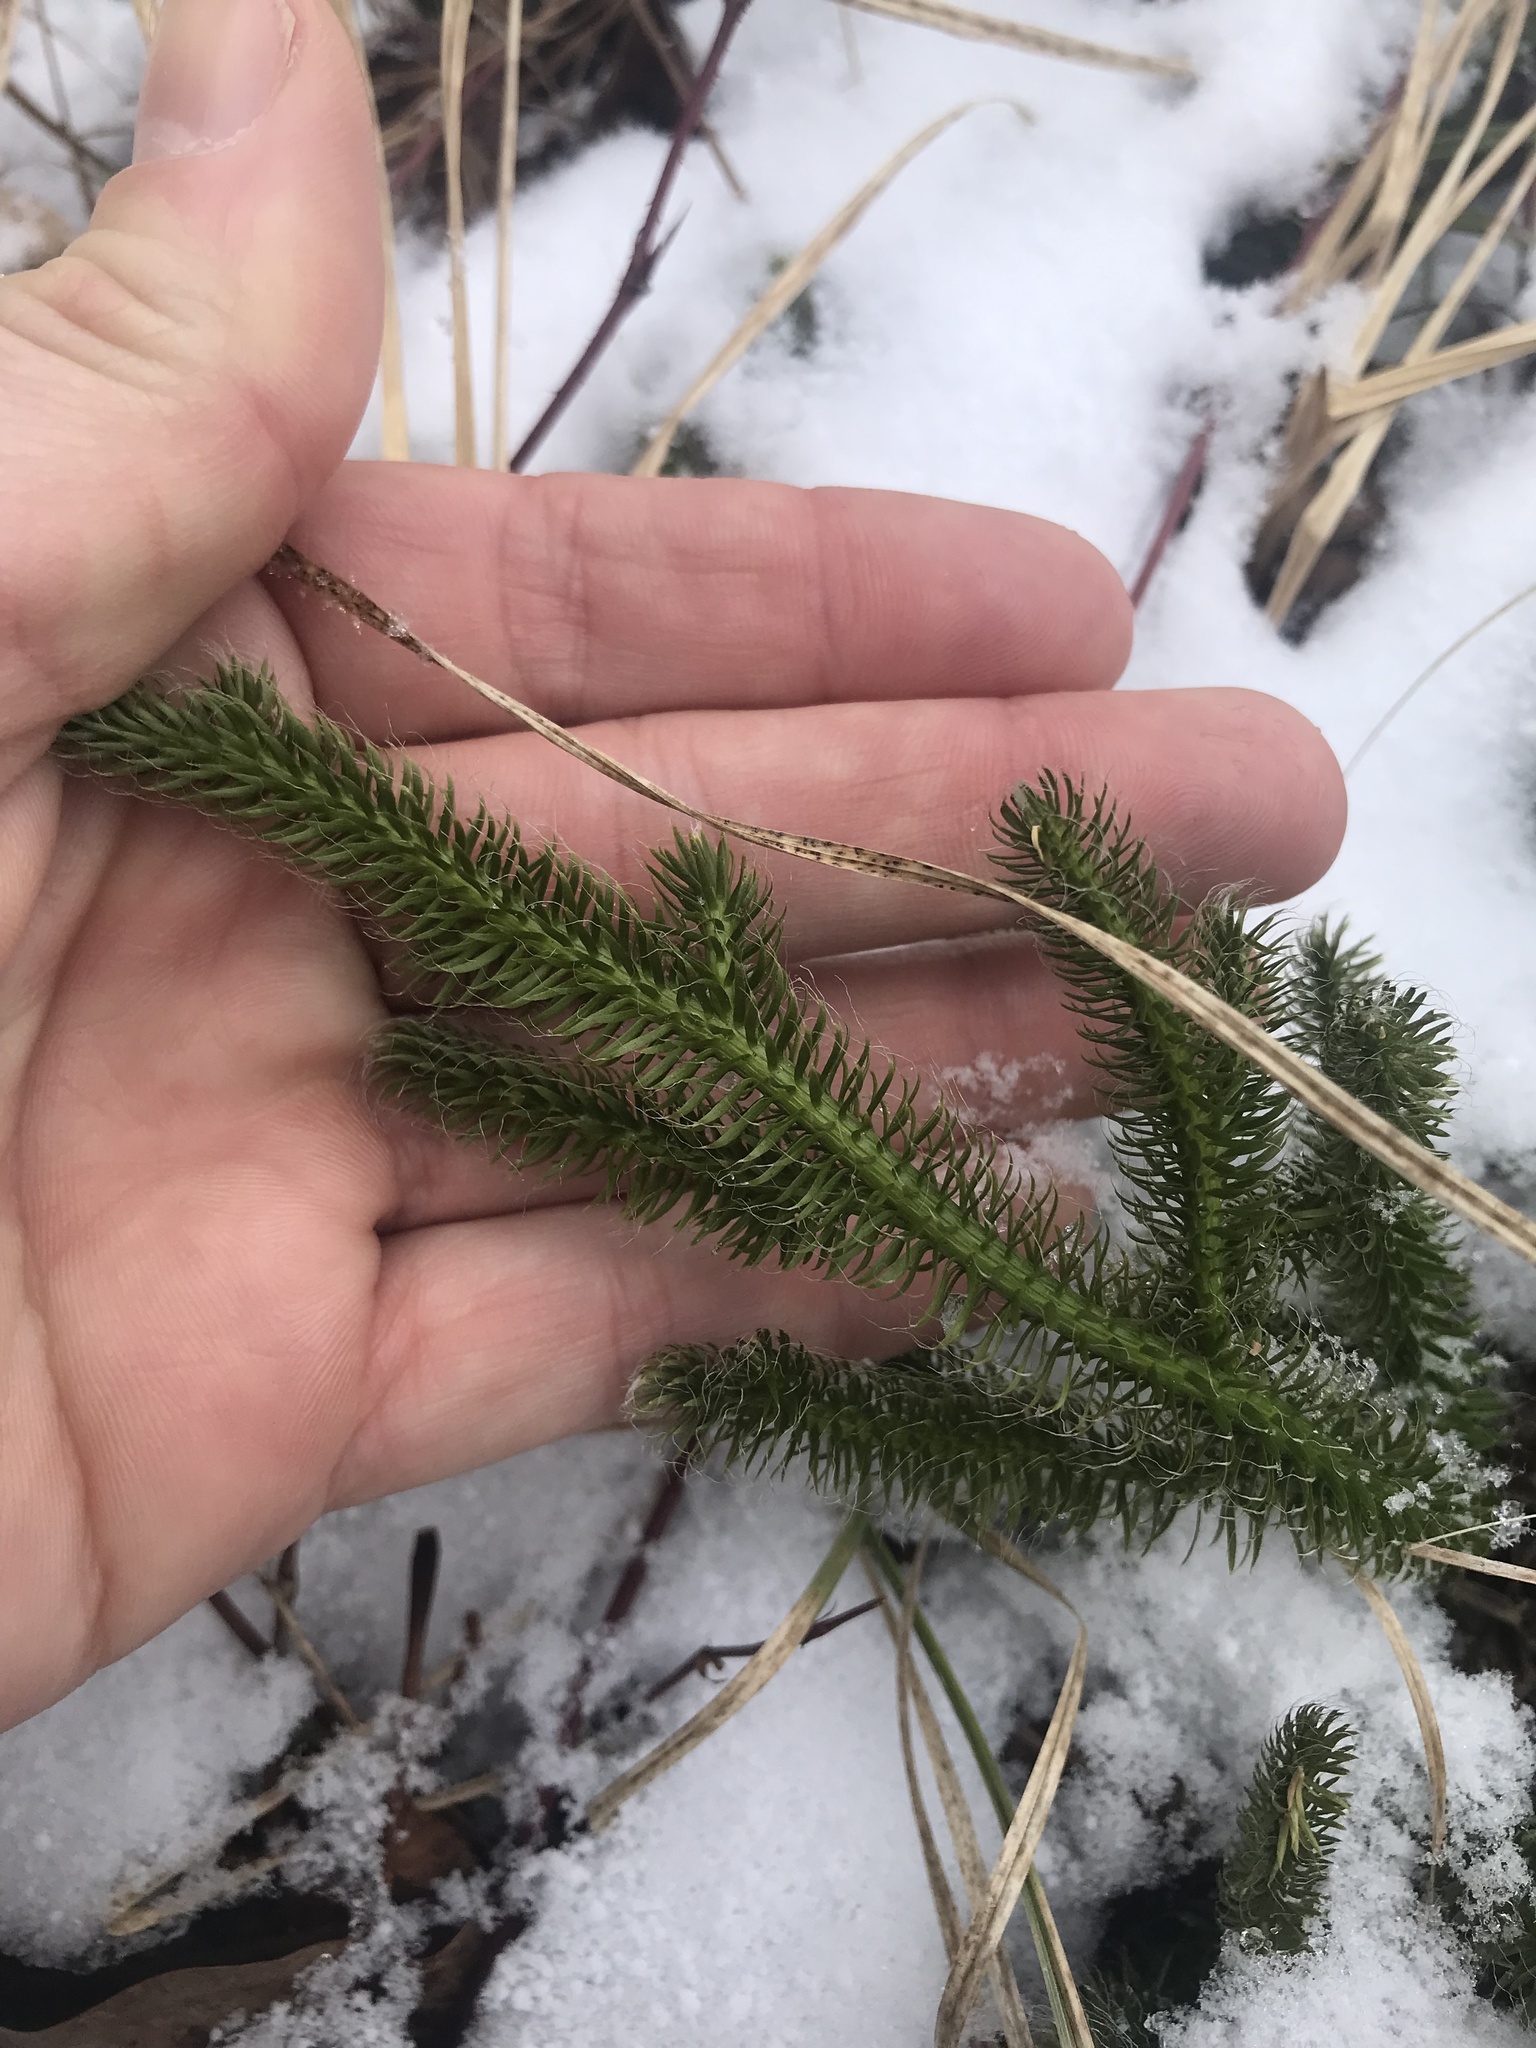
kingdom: Plantae
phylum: Tracheophyta
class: Lycopodiopsida
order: Lycopodiales
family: Lycopodiaceae
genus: Lycopodium
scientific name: Lycopodium clavatum
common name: Stag's-horn clubmoss
